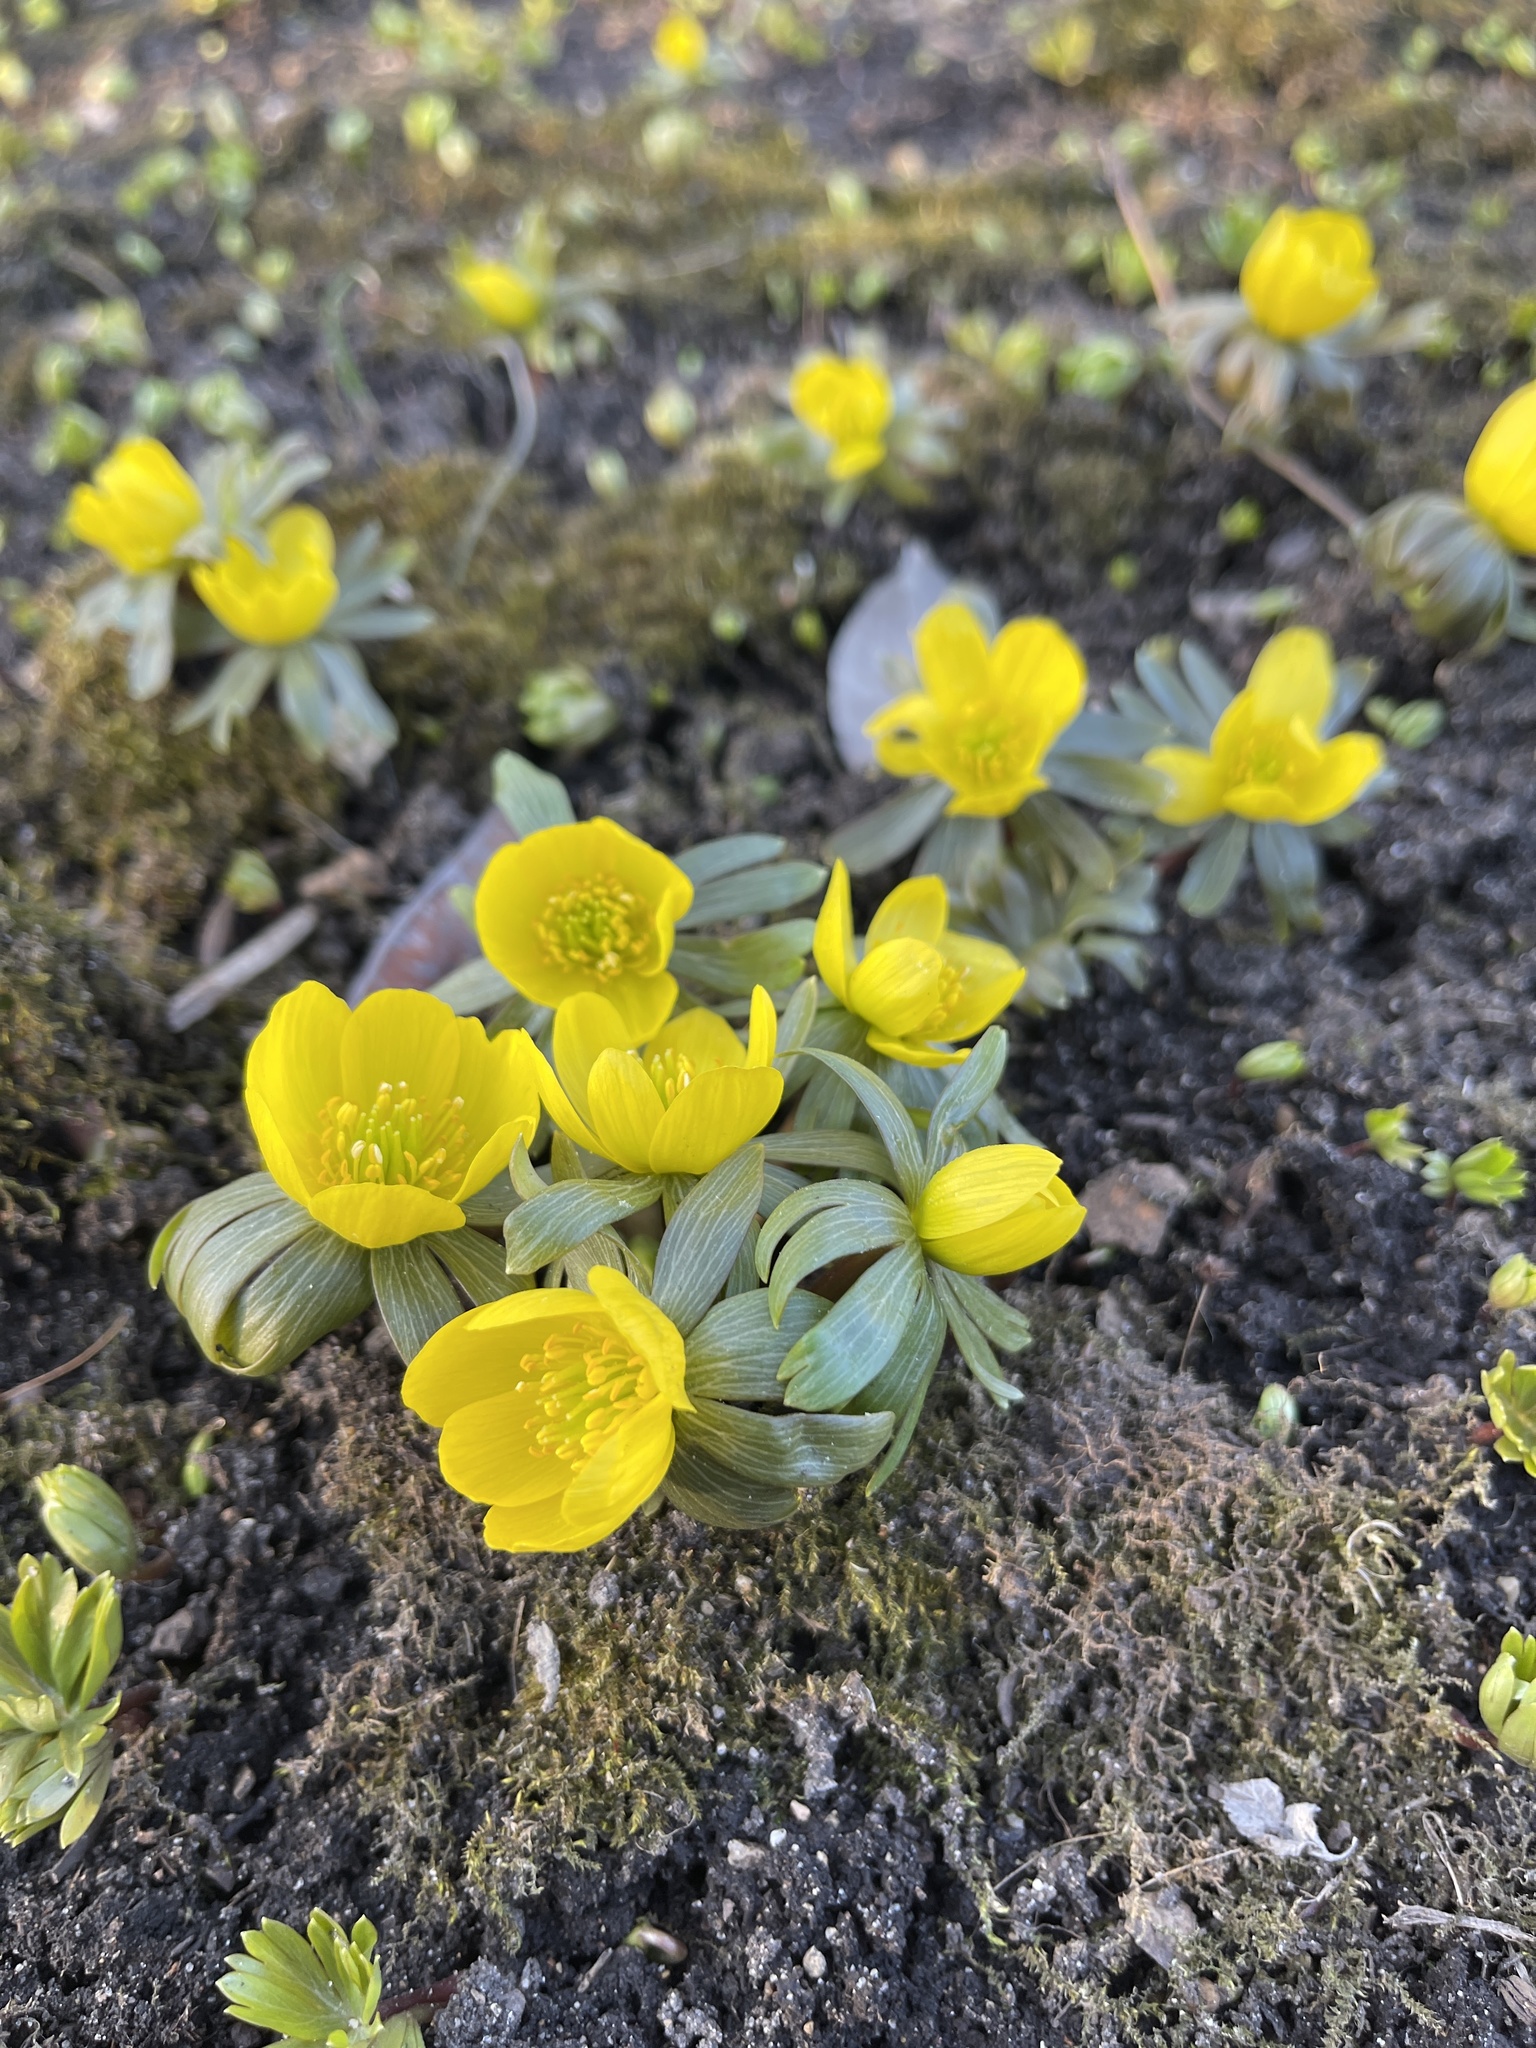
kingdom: Plantae
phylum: Tracheophyta
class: Magnoliopsida
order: Ranunculales
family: Ranunculaceae
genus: Eranthis
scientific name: Eranthis hyemalis
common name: Winter aconite
